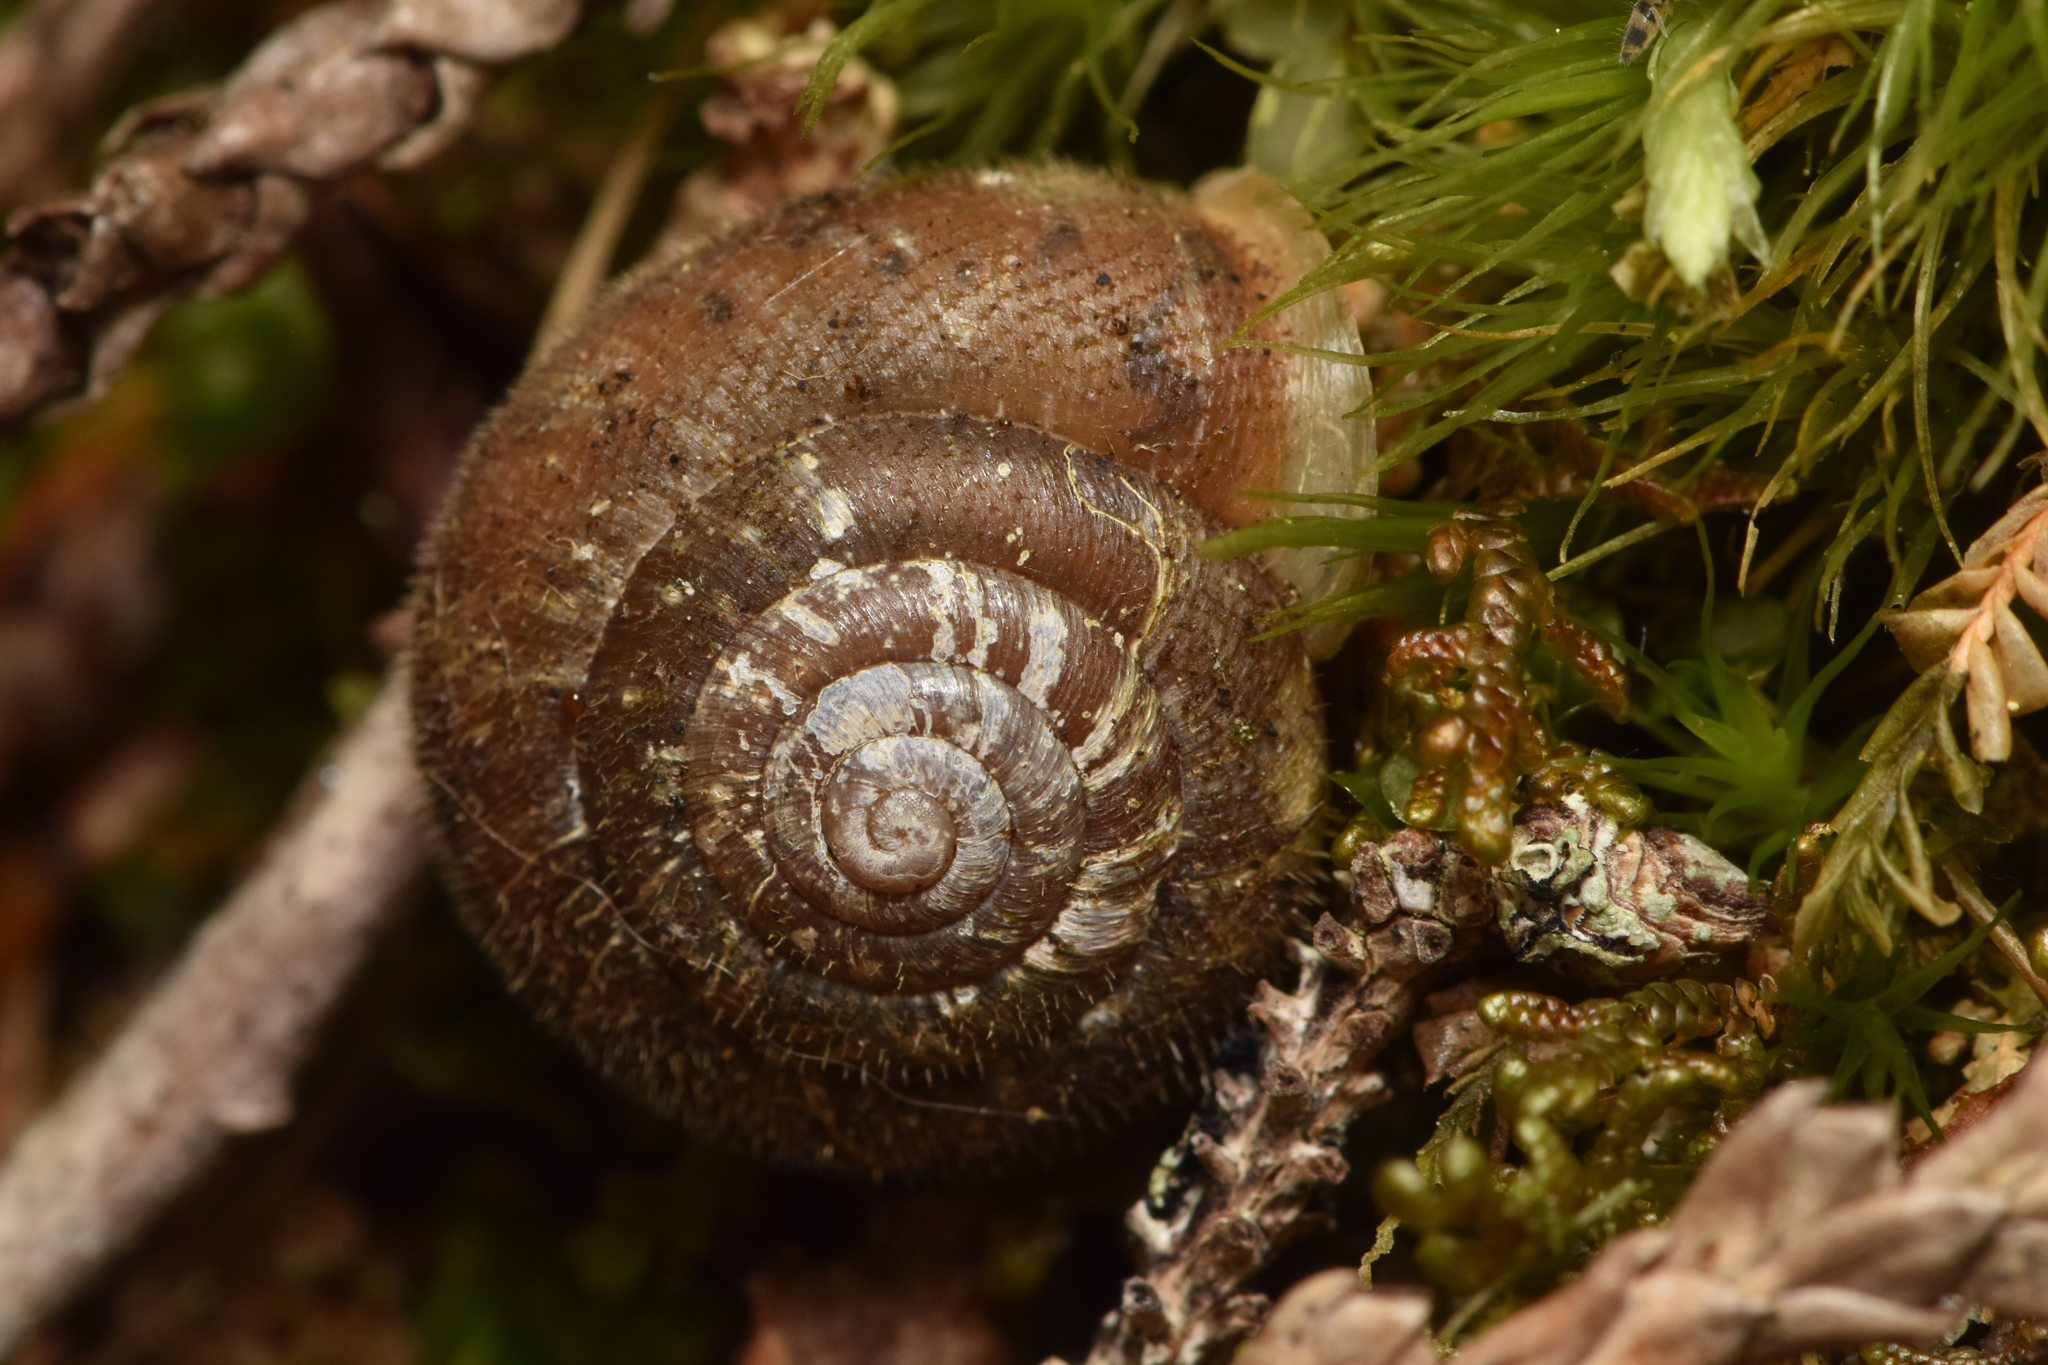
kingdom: Animalia
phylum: Mollusca
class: Gastropoda
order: Stylommatophora
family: Polygyridae
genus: Vespericola
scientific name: Vespericola columbianus
